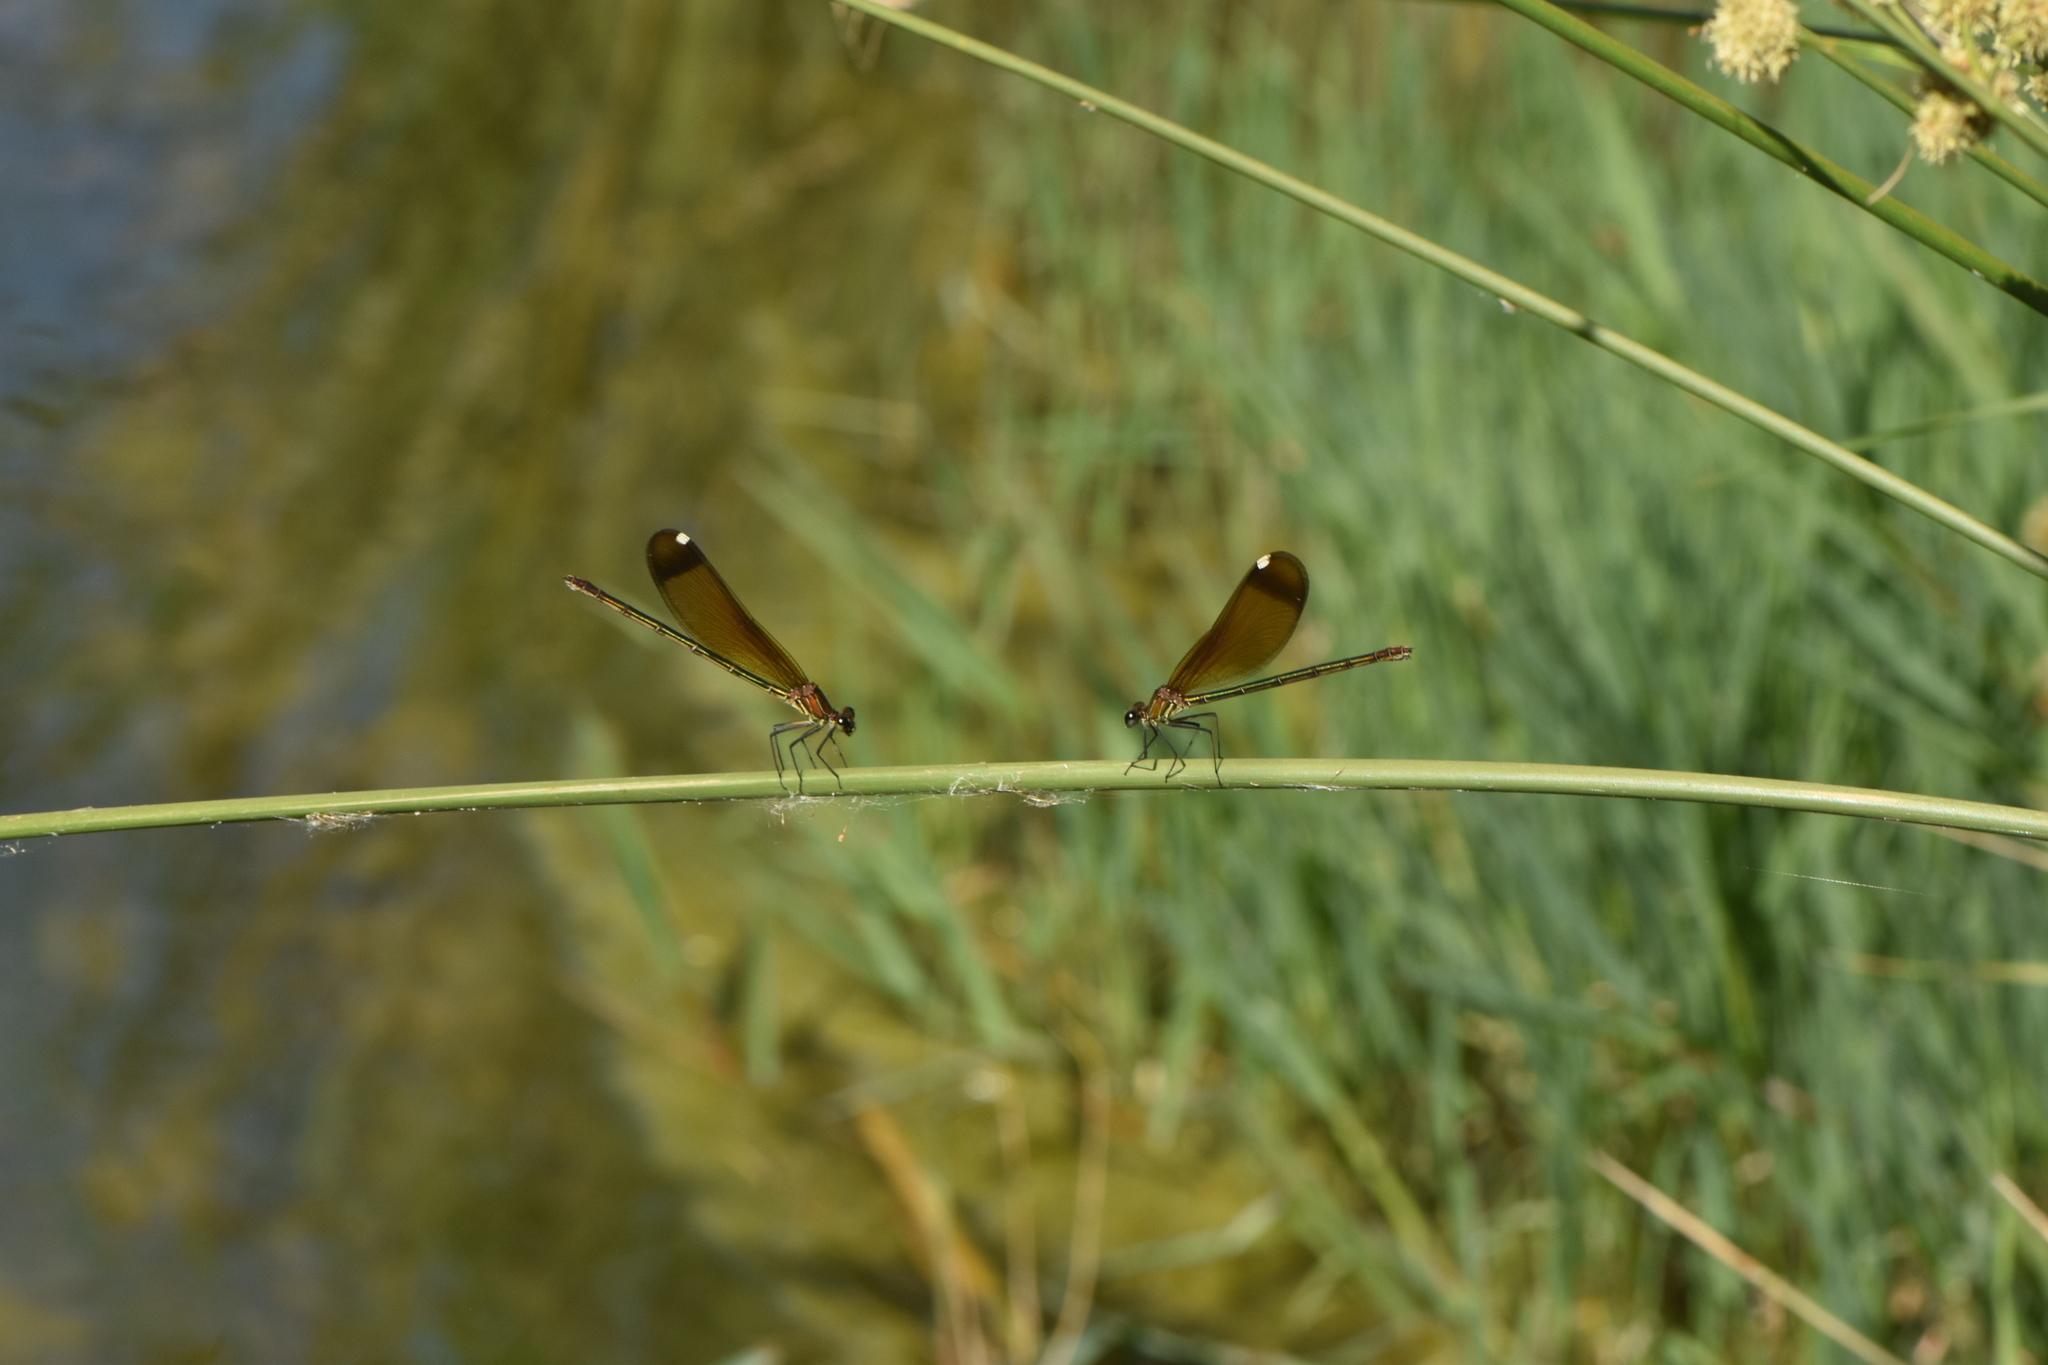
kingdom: Animalia
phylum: Arthropoda
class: Insecta
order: Odonata
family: Calopterygidae
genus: Calopteryx
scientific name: Calopteryx haemorrhoidalis
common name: Copper demoiselle
